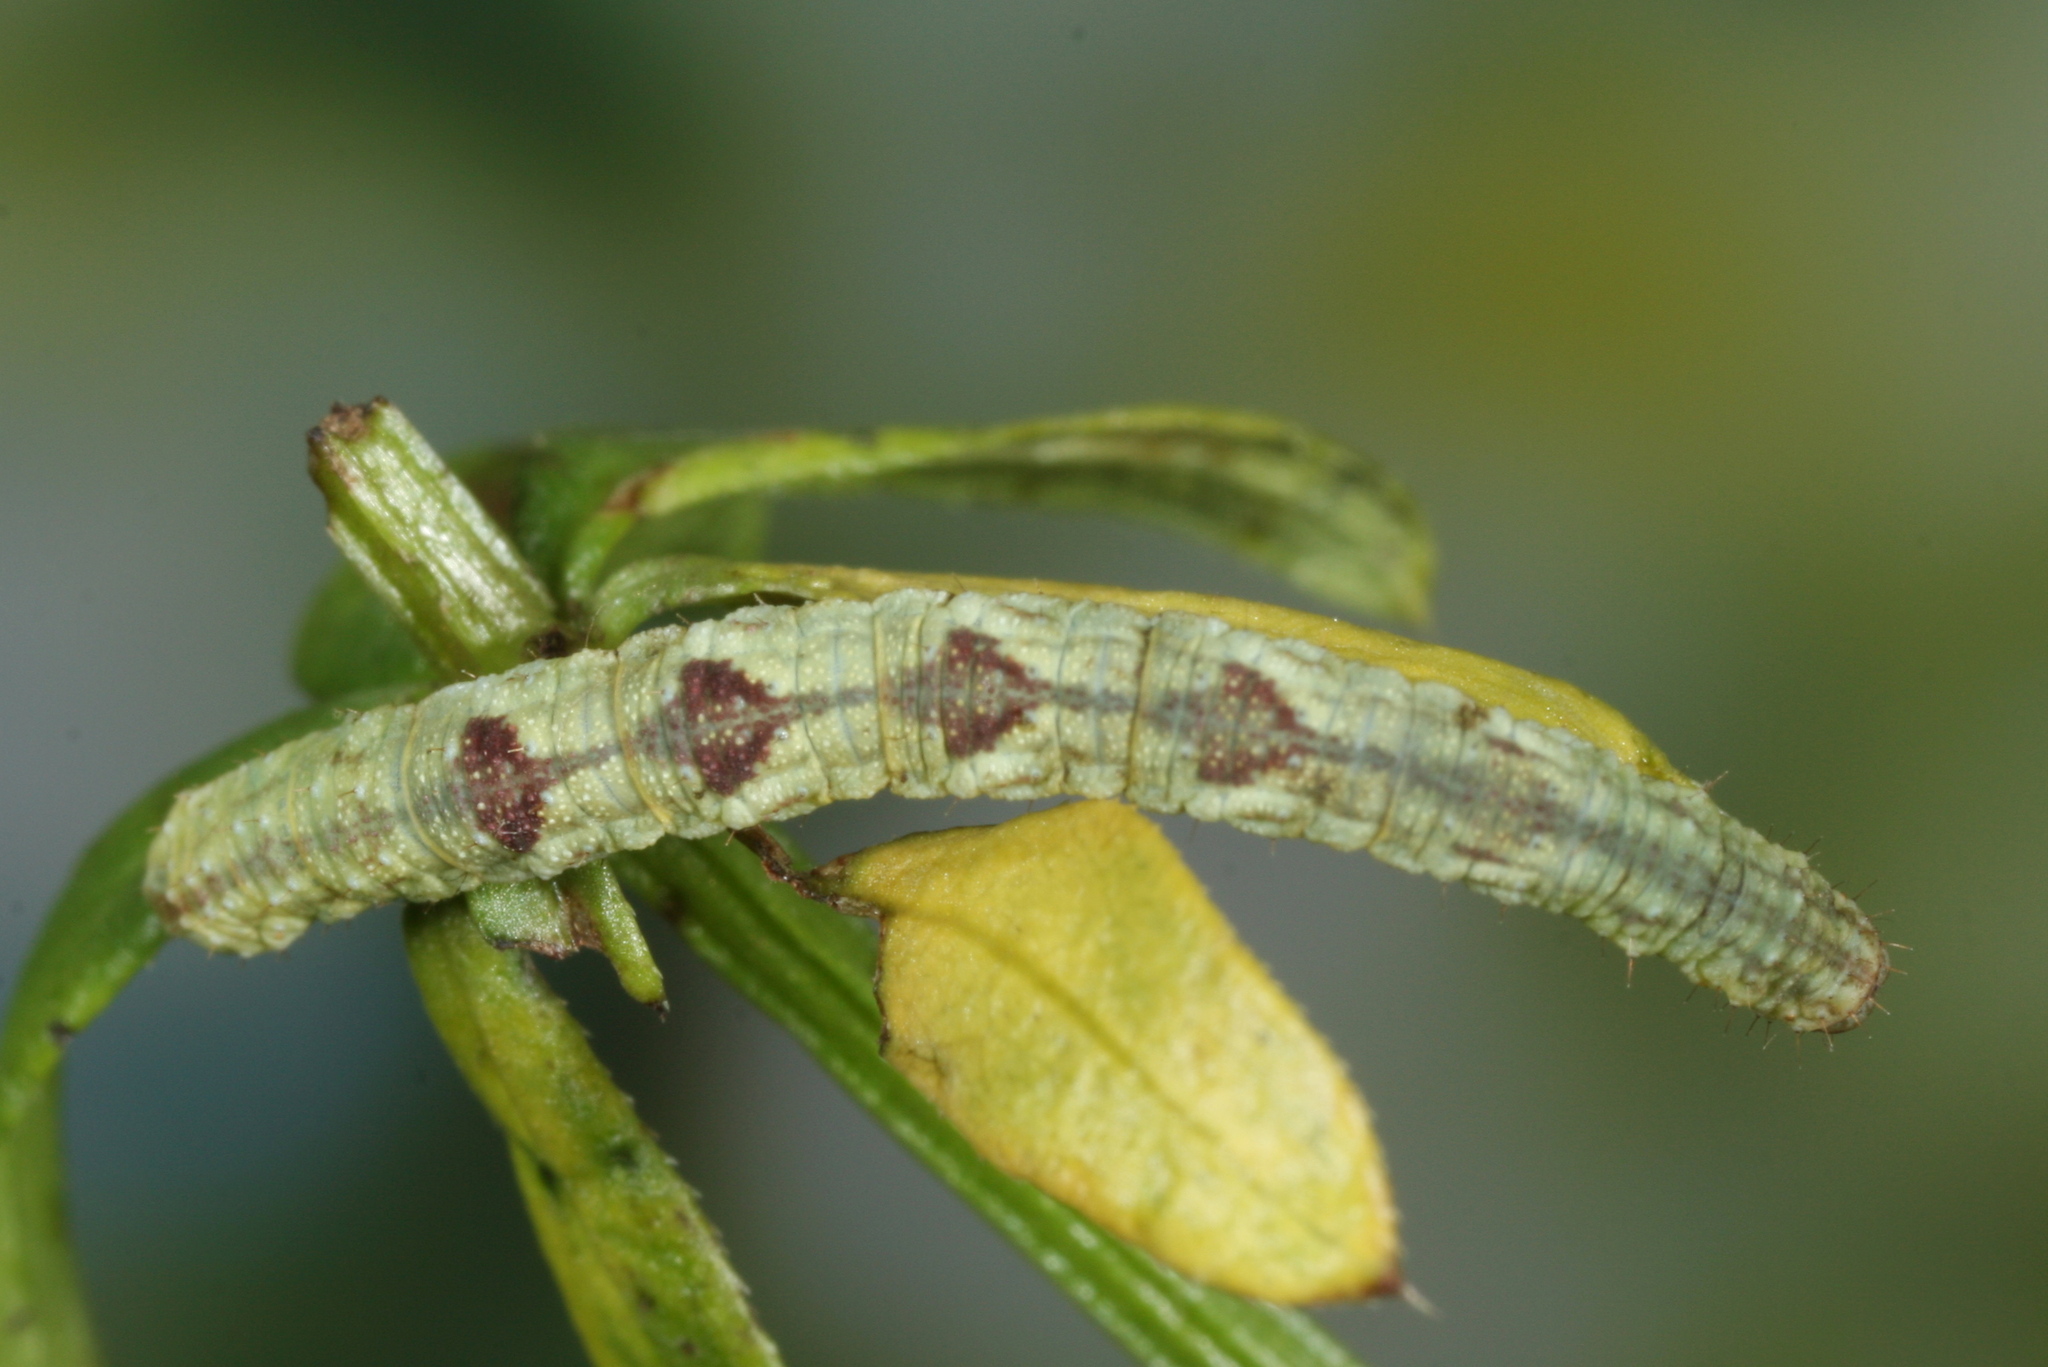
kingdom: Animalia
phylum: Arthropoda
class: Insecta
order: Lepidoptera
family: Geometridae
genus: Eupithecia
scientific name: Eupithecia satyrata
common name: Satyr pug
